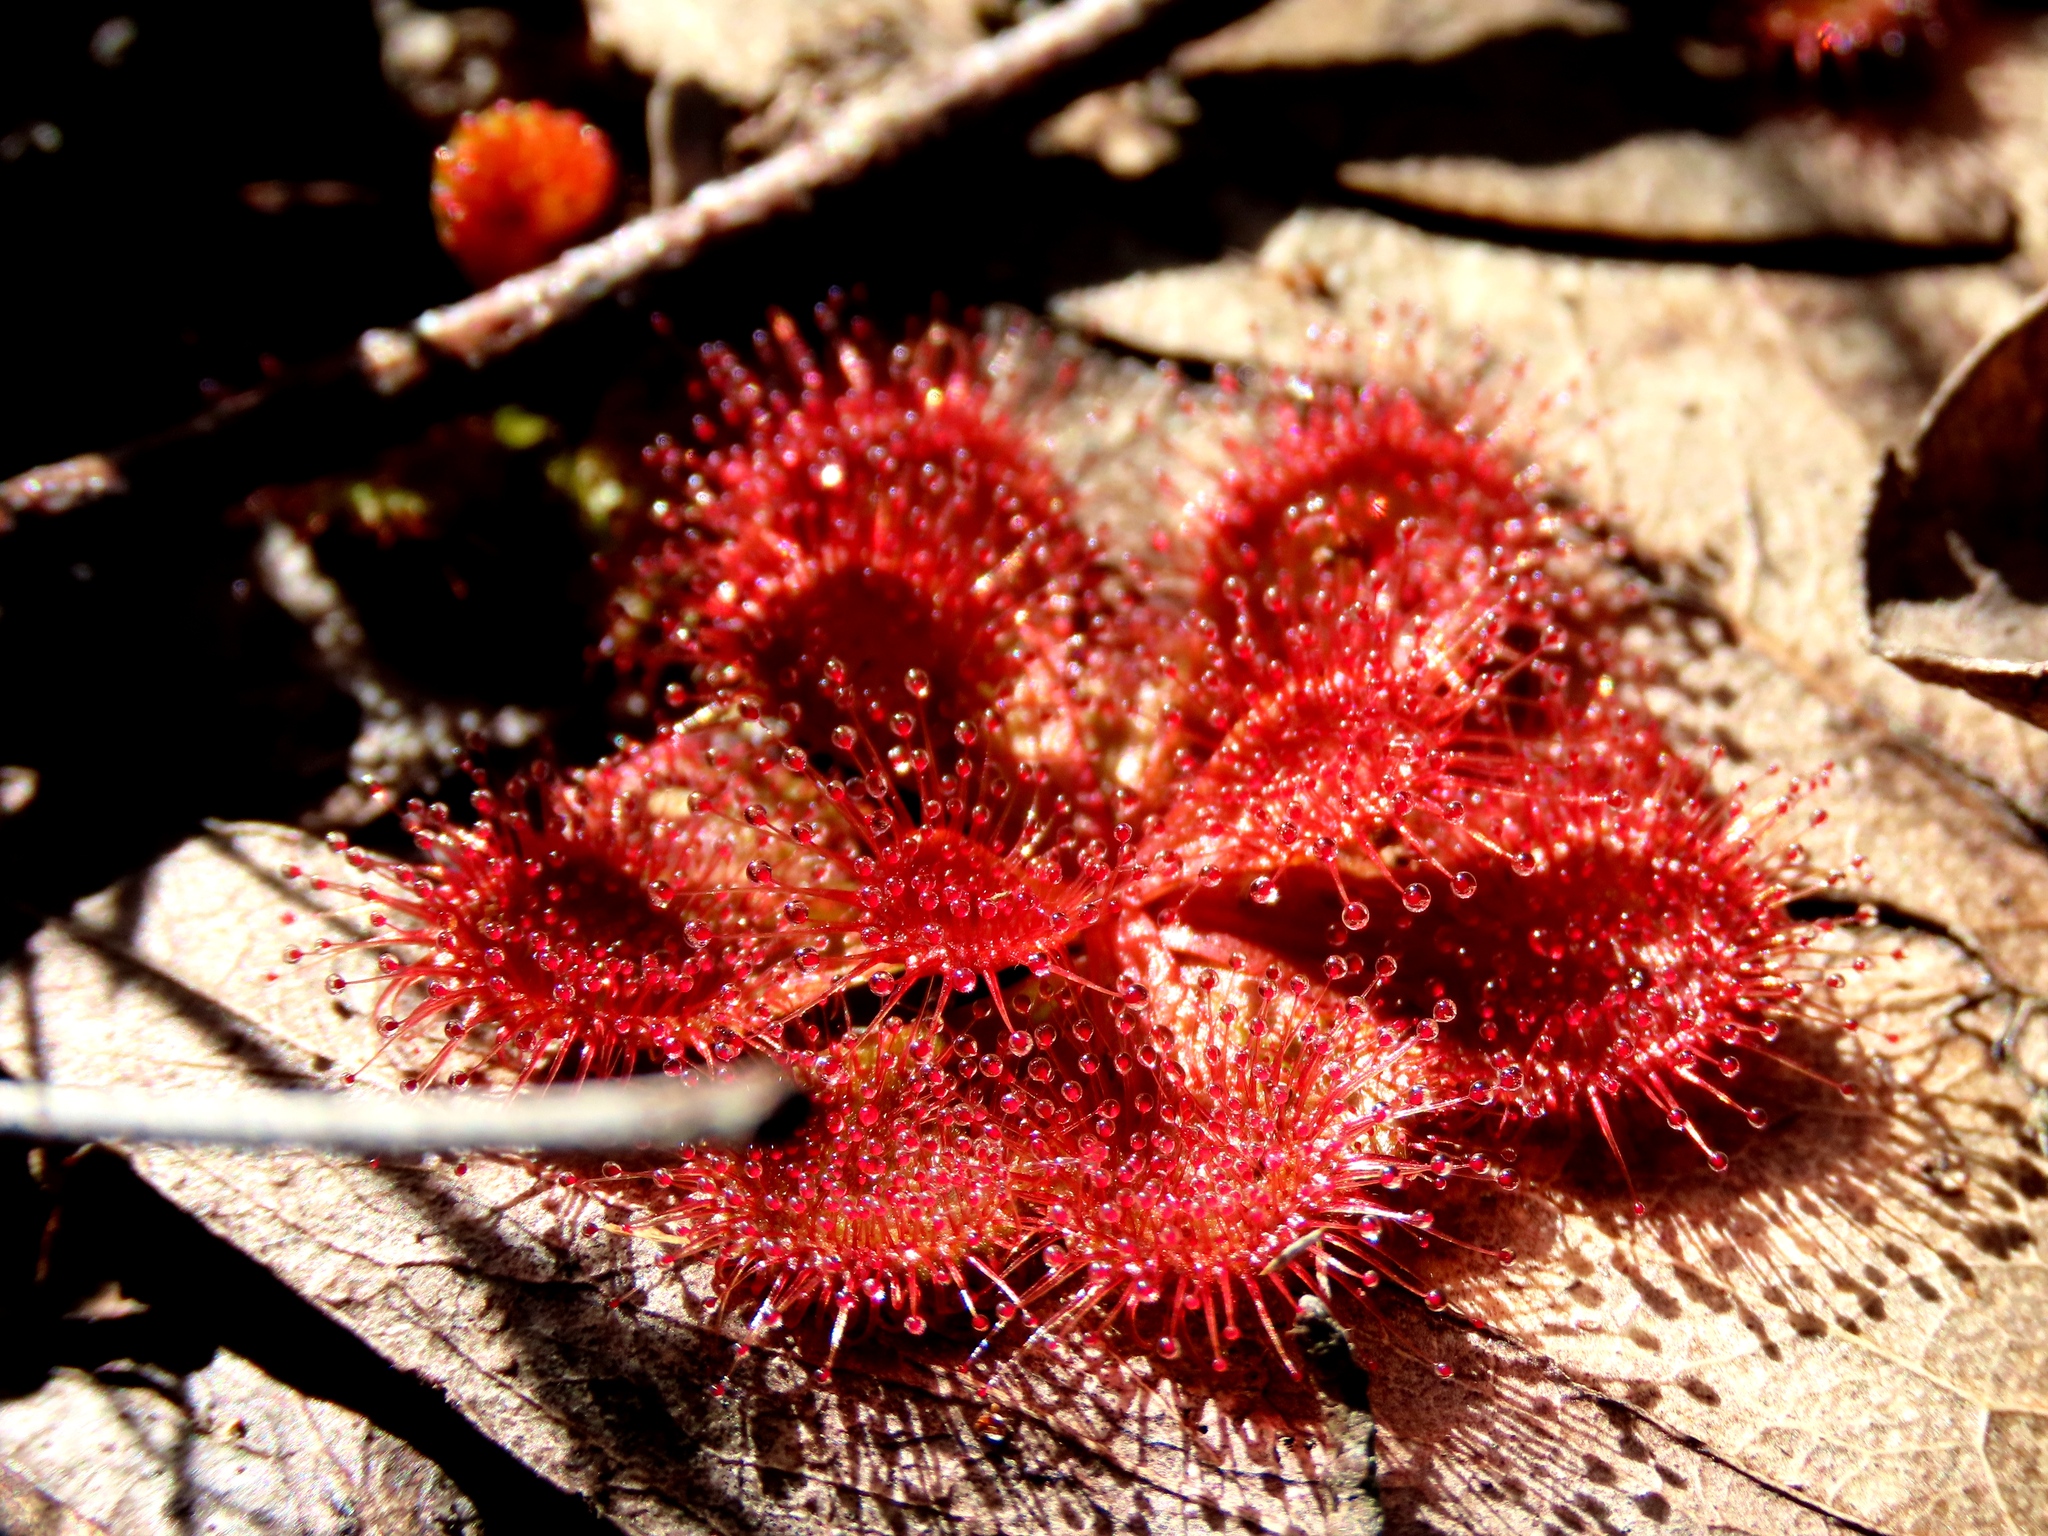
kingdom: Plantae
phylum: Tracheophyta
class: Magnoliopsida
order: Caryophyllales
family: Droseraceae
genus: Drosera
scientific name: Drosera aberrans
